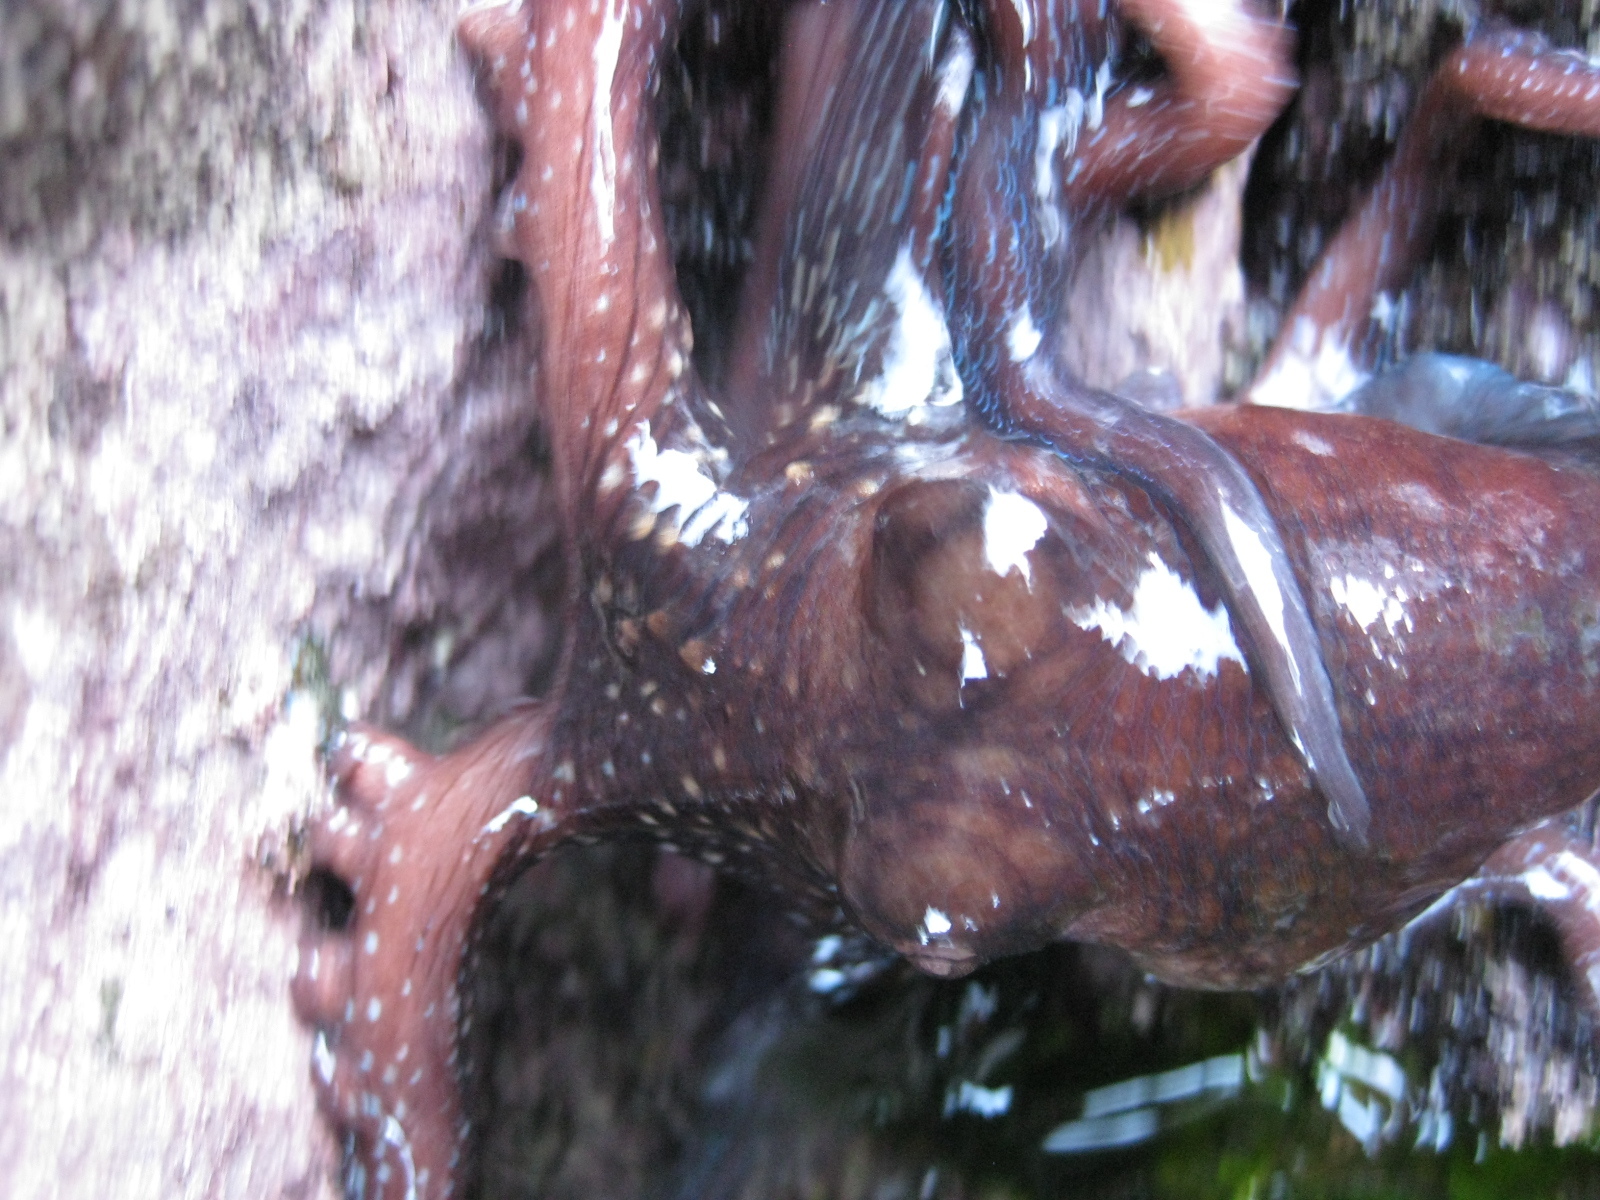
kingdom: Animalia
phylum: Mollusca
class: Cephalopoda
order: Octopoda
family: Octopodidae
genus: Macroctopus
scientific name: Macroctopus maorum
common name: Maori octopus
